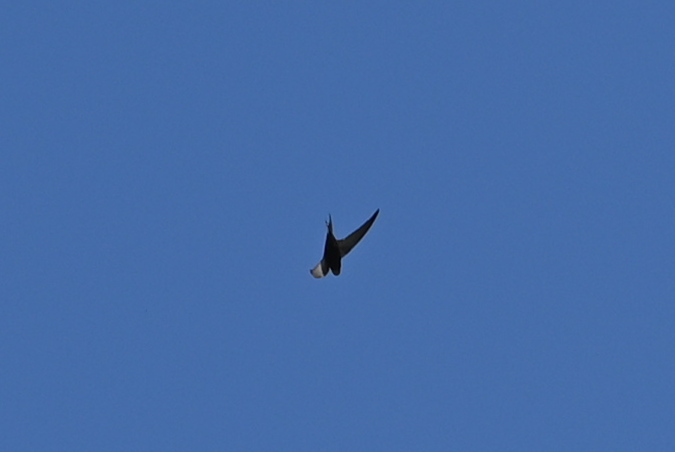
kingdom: Animalia
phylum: Chordata
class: Aves
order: Apodiformes
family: Apodidae
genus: Apus
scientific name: Apus apus
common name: Common swift
